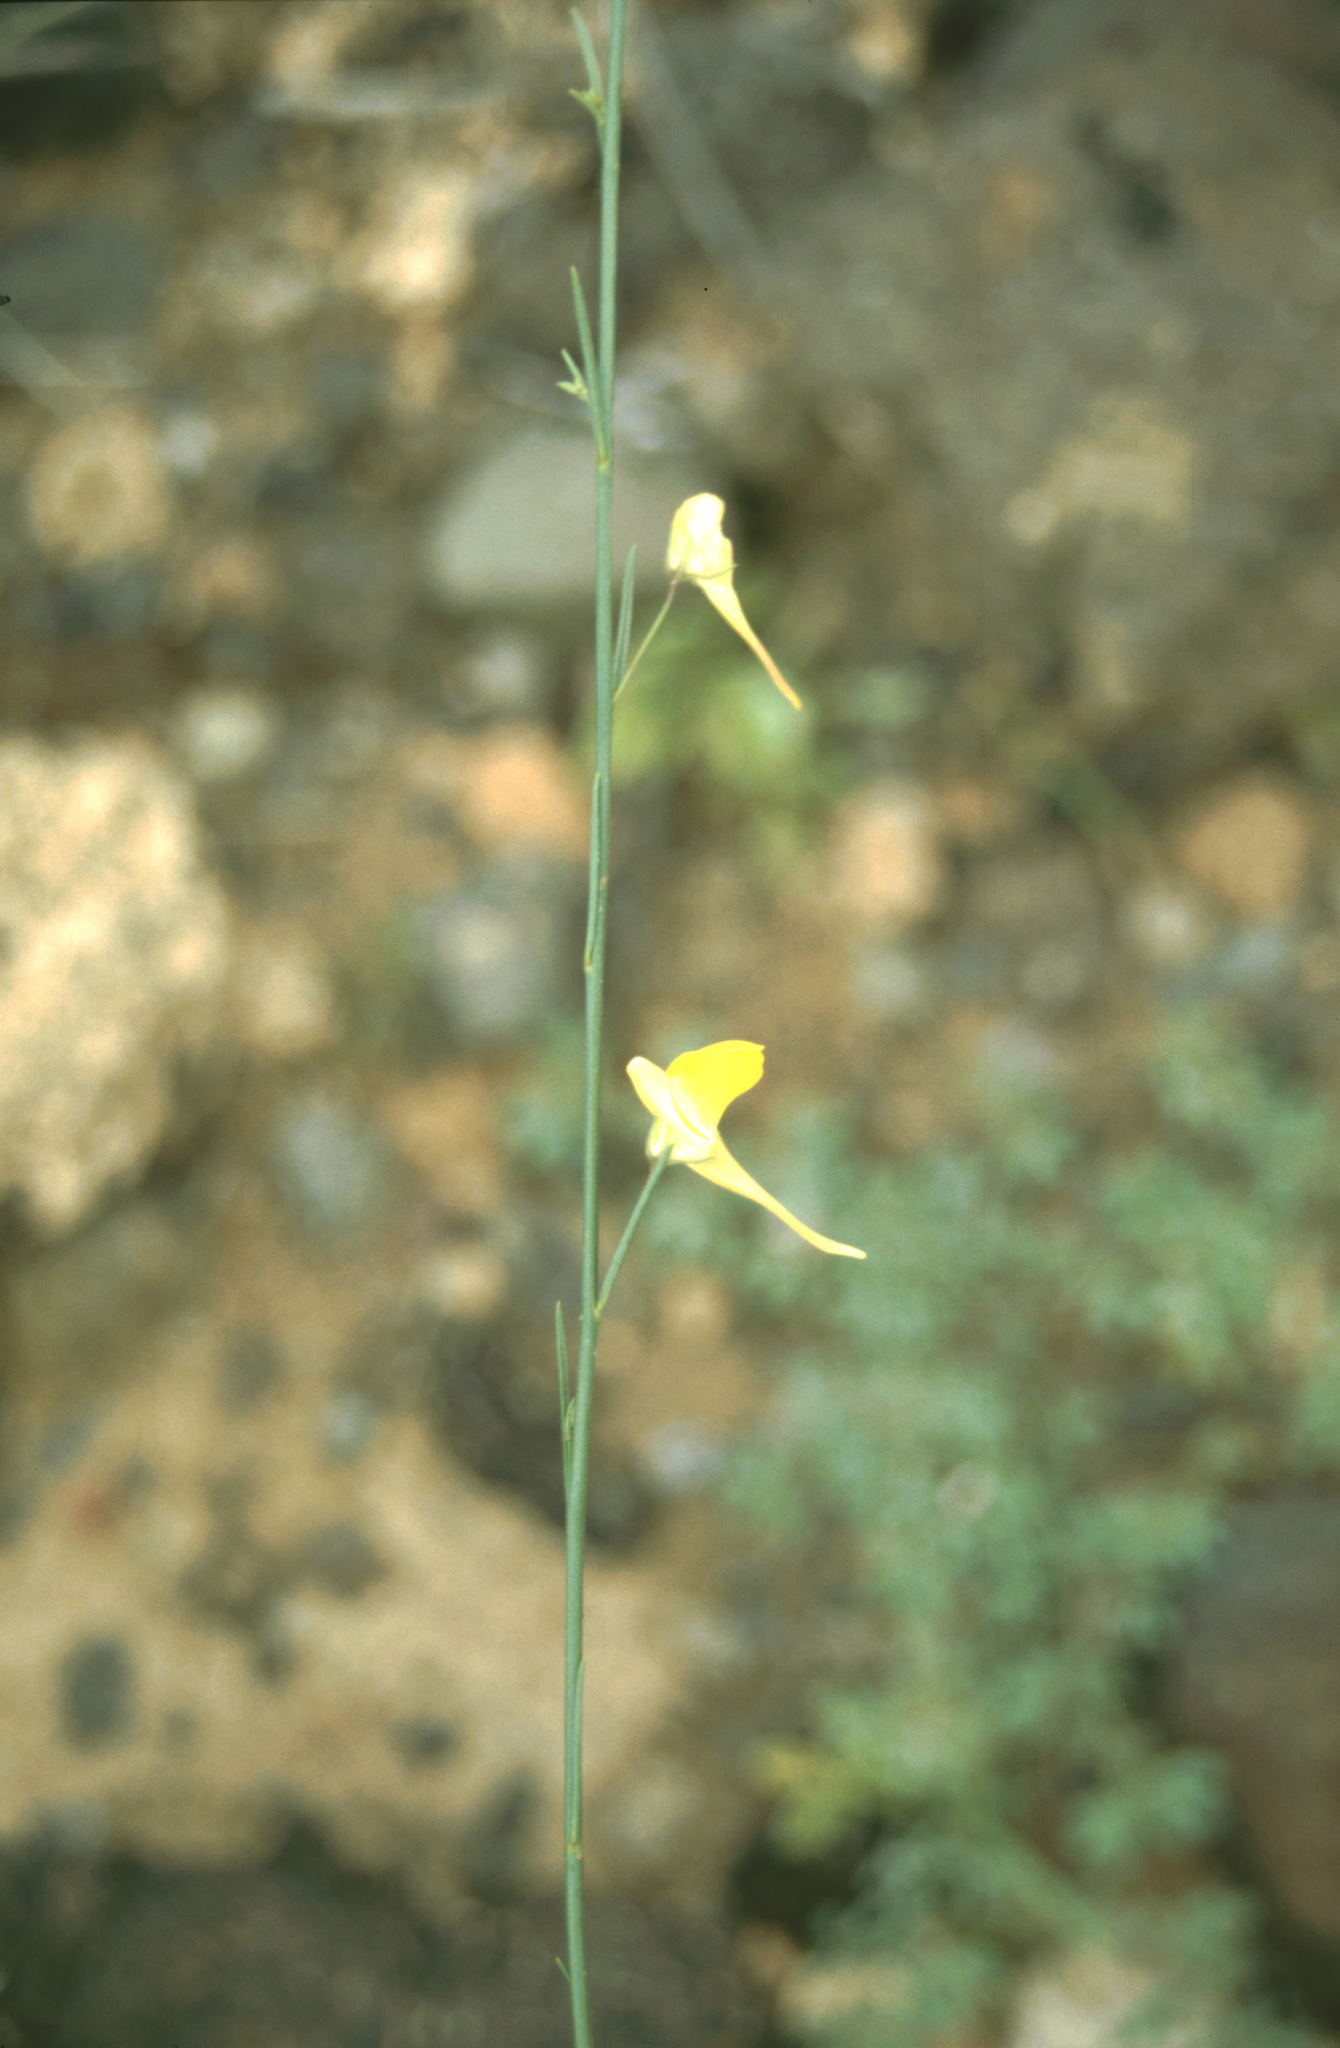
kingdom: Plantae
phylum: Tracheophyta
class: Magnoliopsida
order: Lamiales
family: Plantaginaceae
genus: Nanorrhinum
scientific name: Nanorrhinum scoparium
